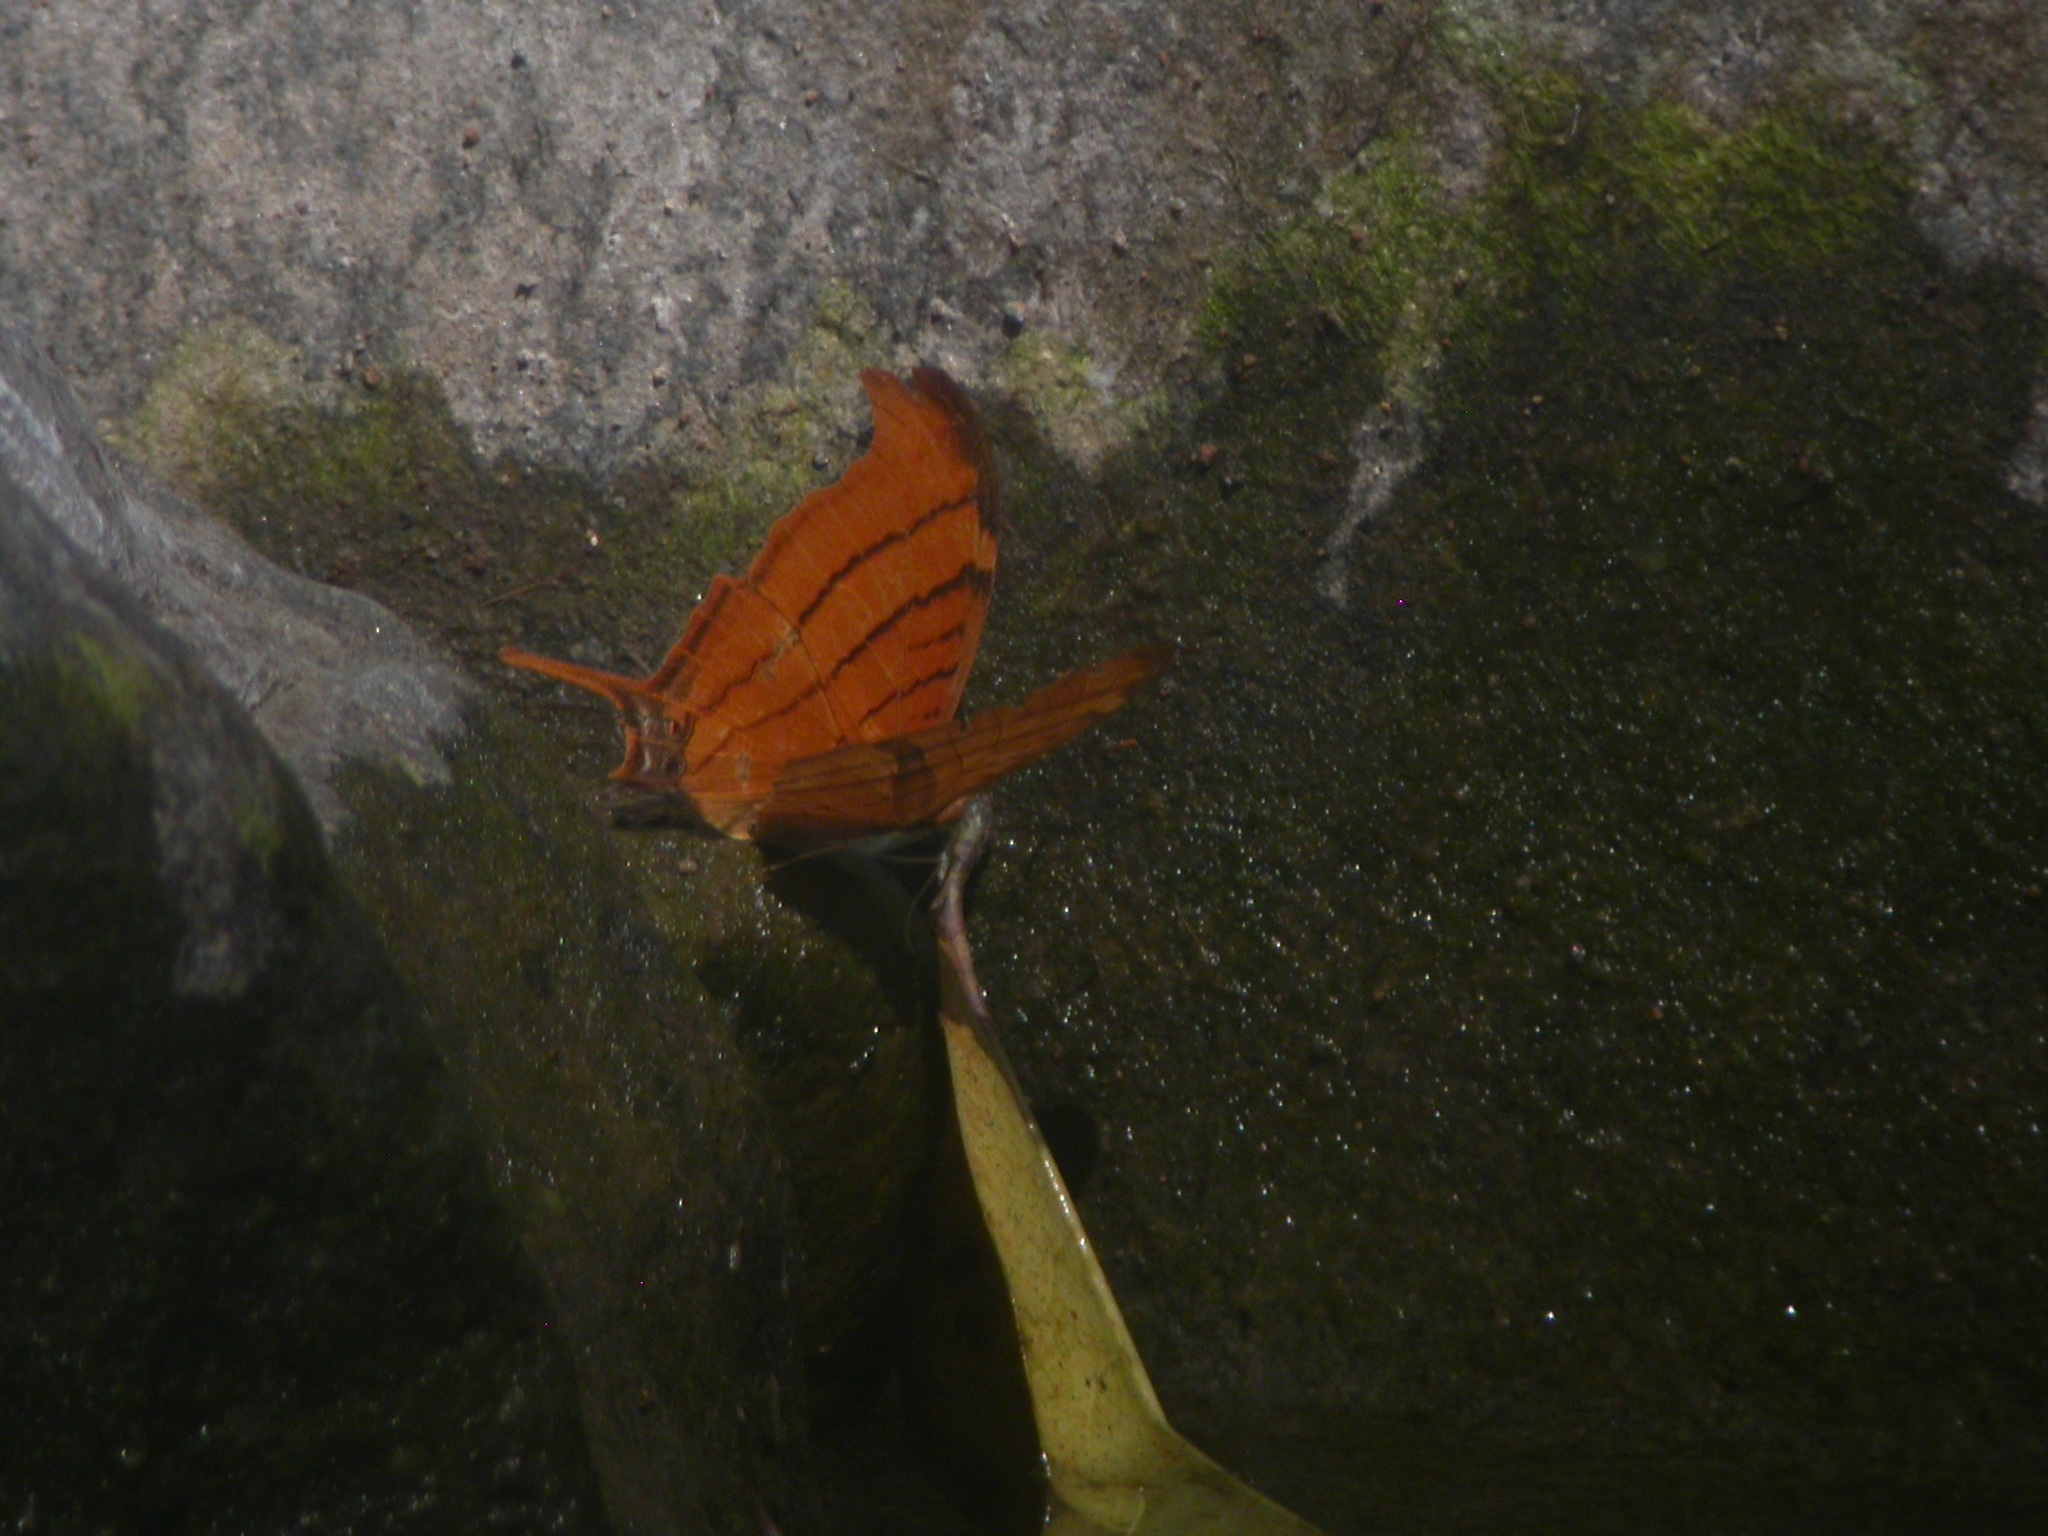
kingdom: Animalia
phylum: Arthropoda
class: Insecta
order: Lepidoptera
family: Nymphalidae
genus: Marpesia
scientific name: Marpesia petreus
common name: Red dagger wing
